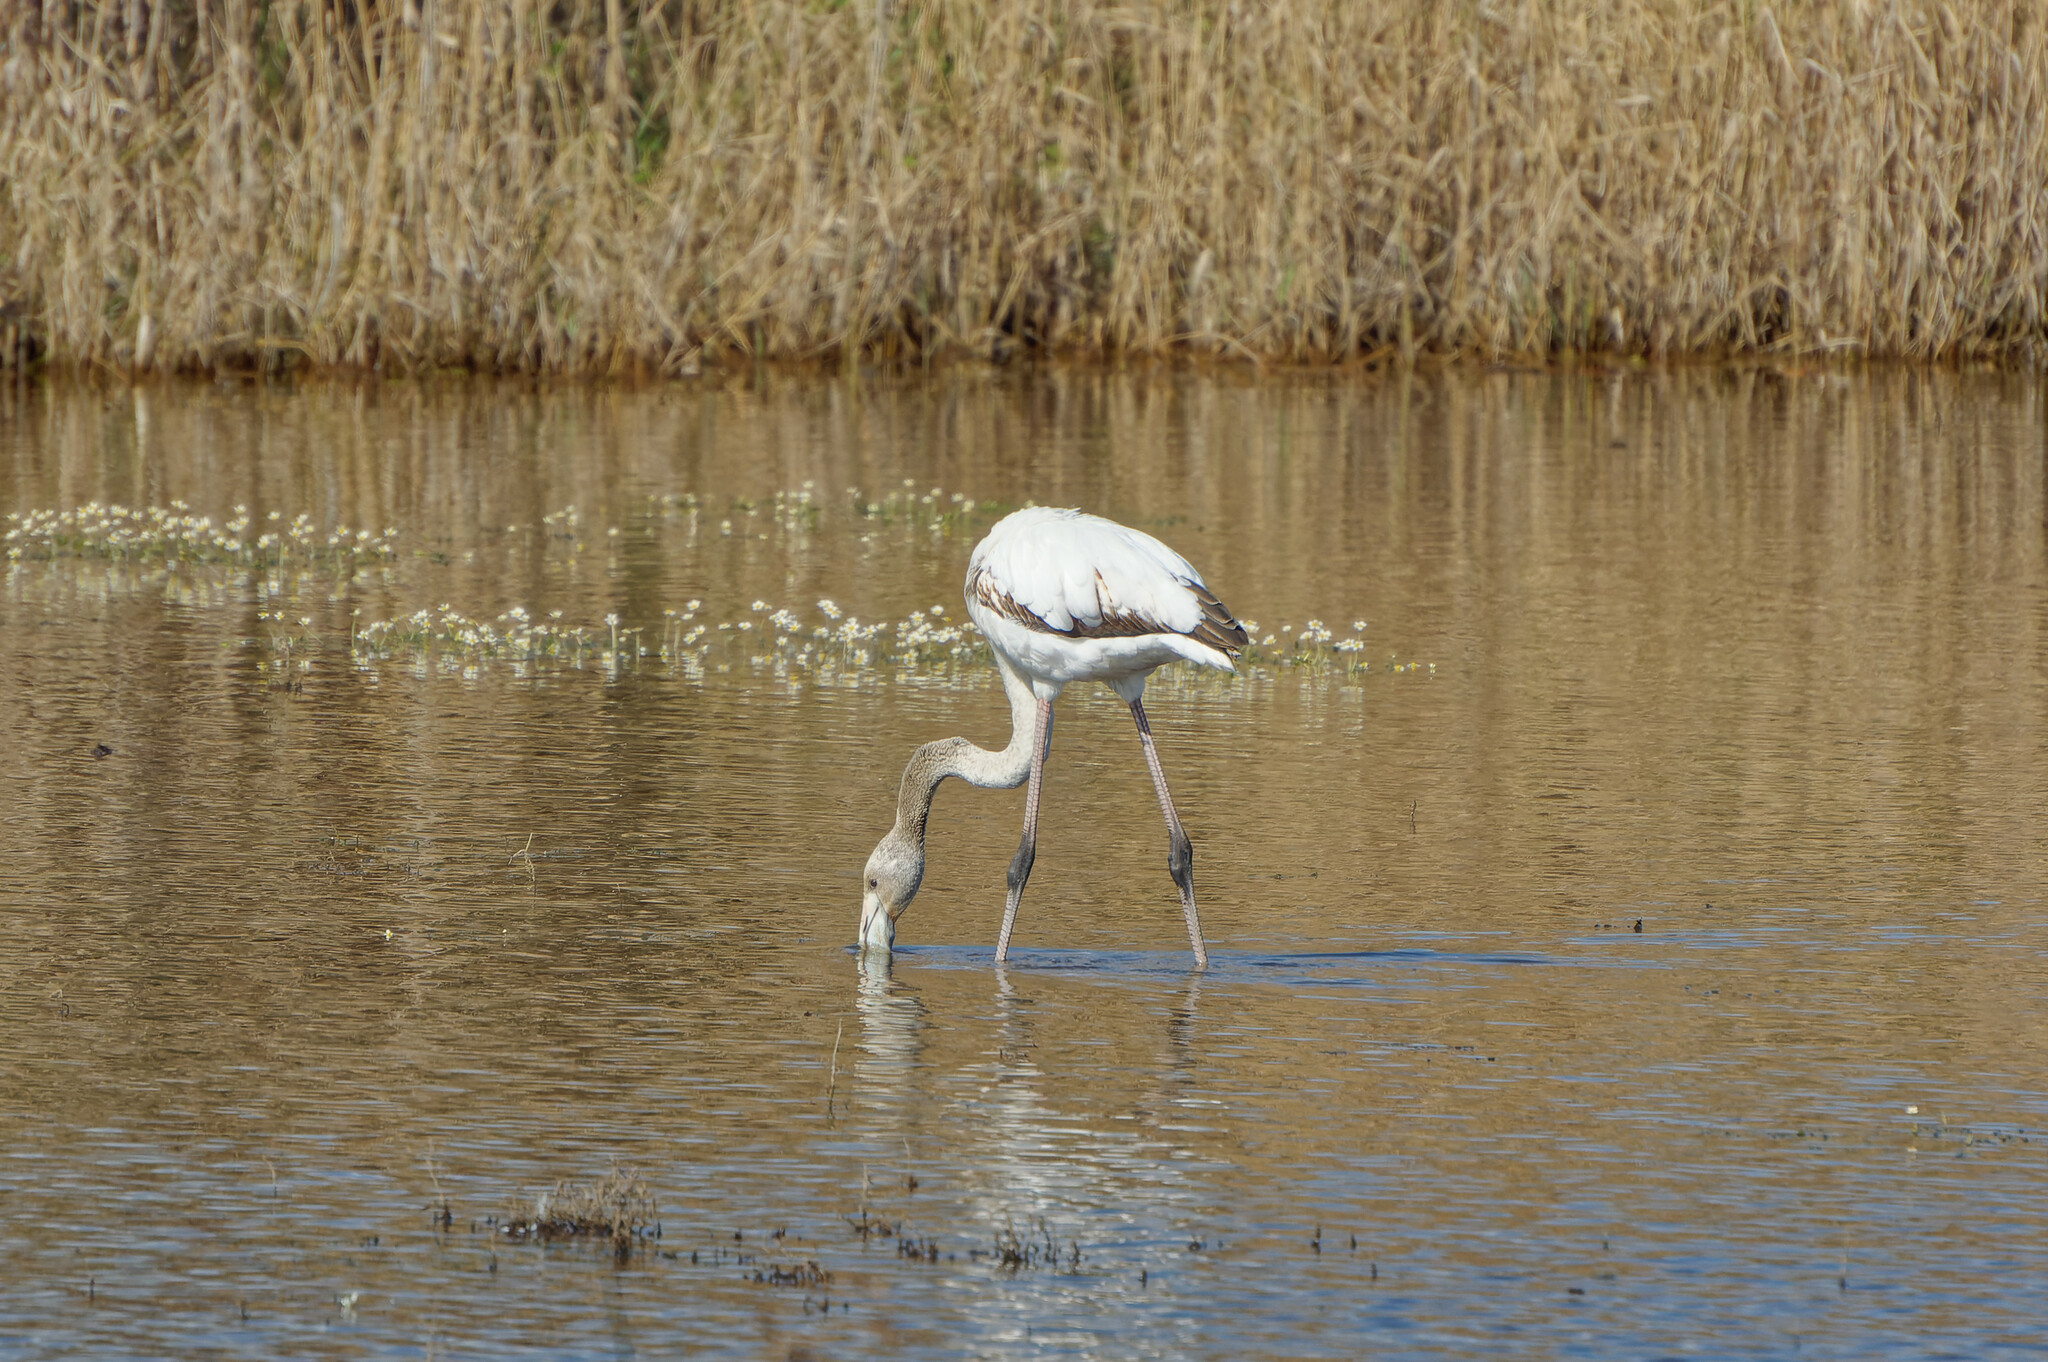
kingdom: Animalia
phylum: Chordata
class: Aves
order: Phoenicopteriformes
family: Phoenicopteridae
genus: Phoenicopterus
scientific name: Phoenicopterus roseus
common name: Greater flamingo
